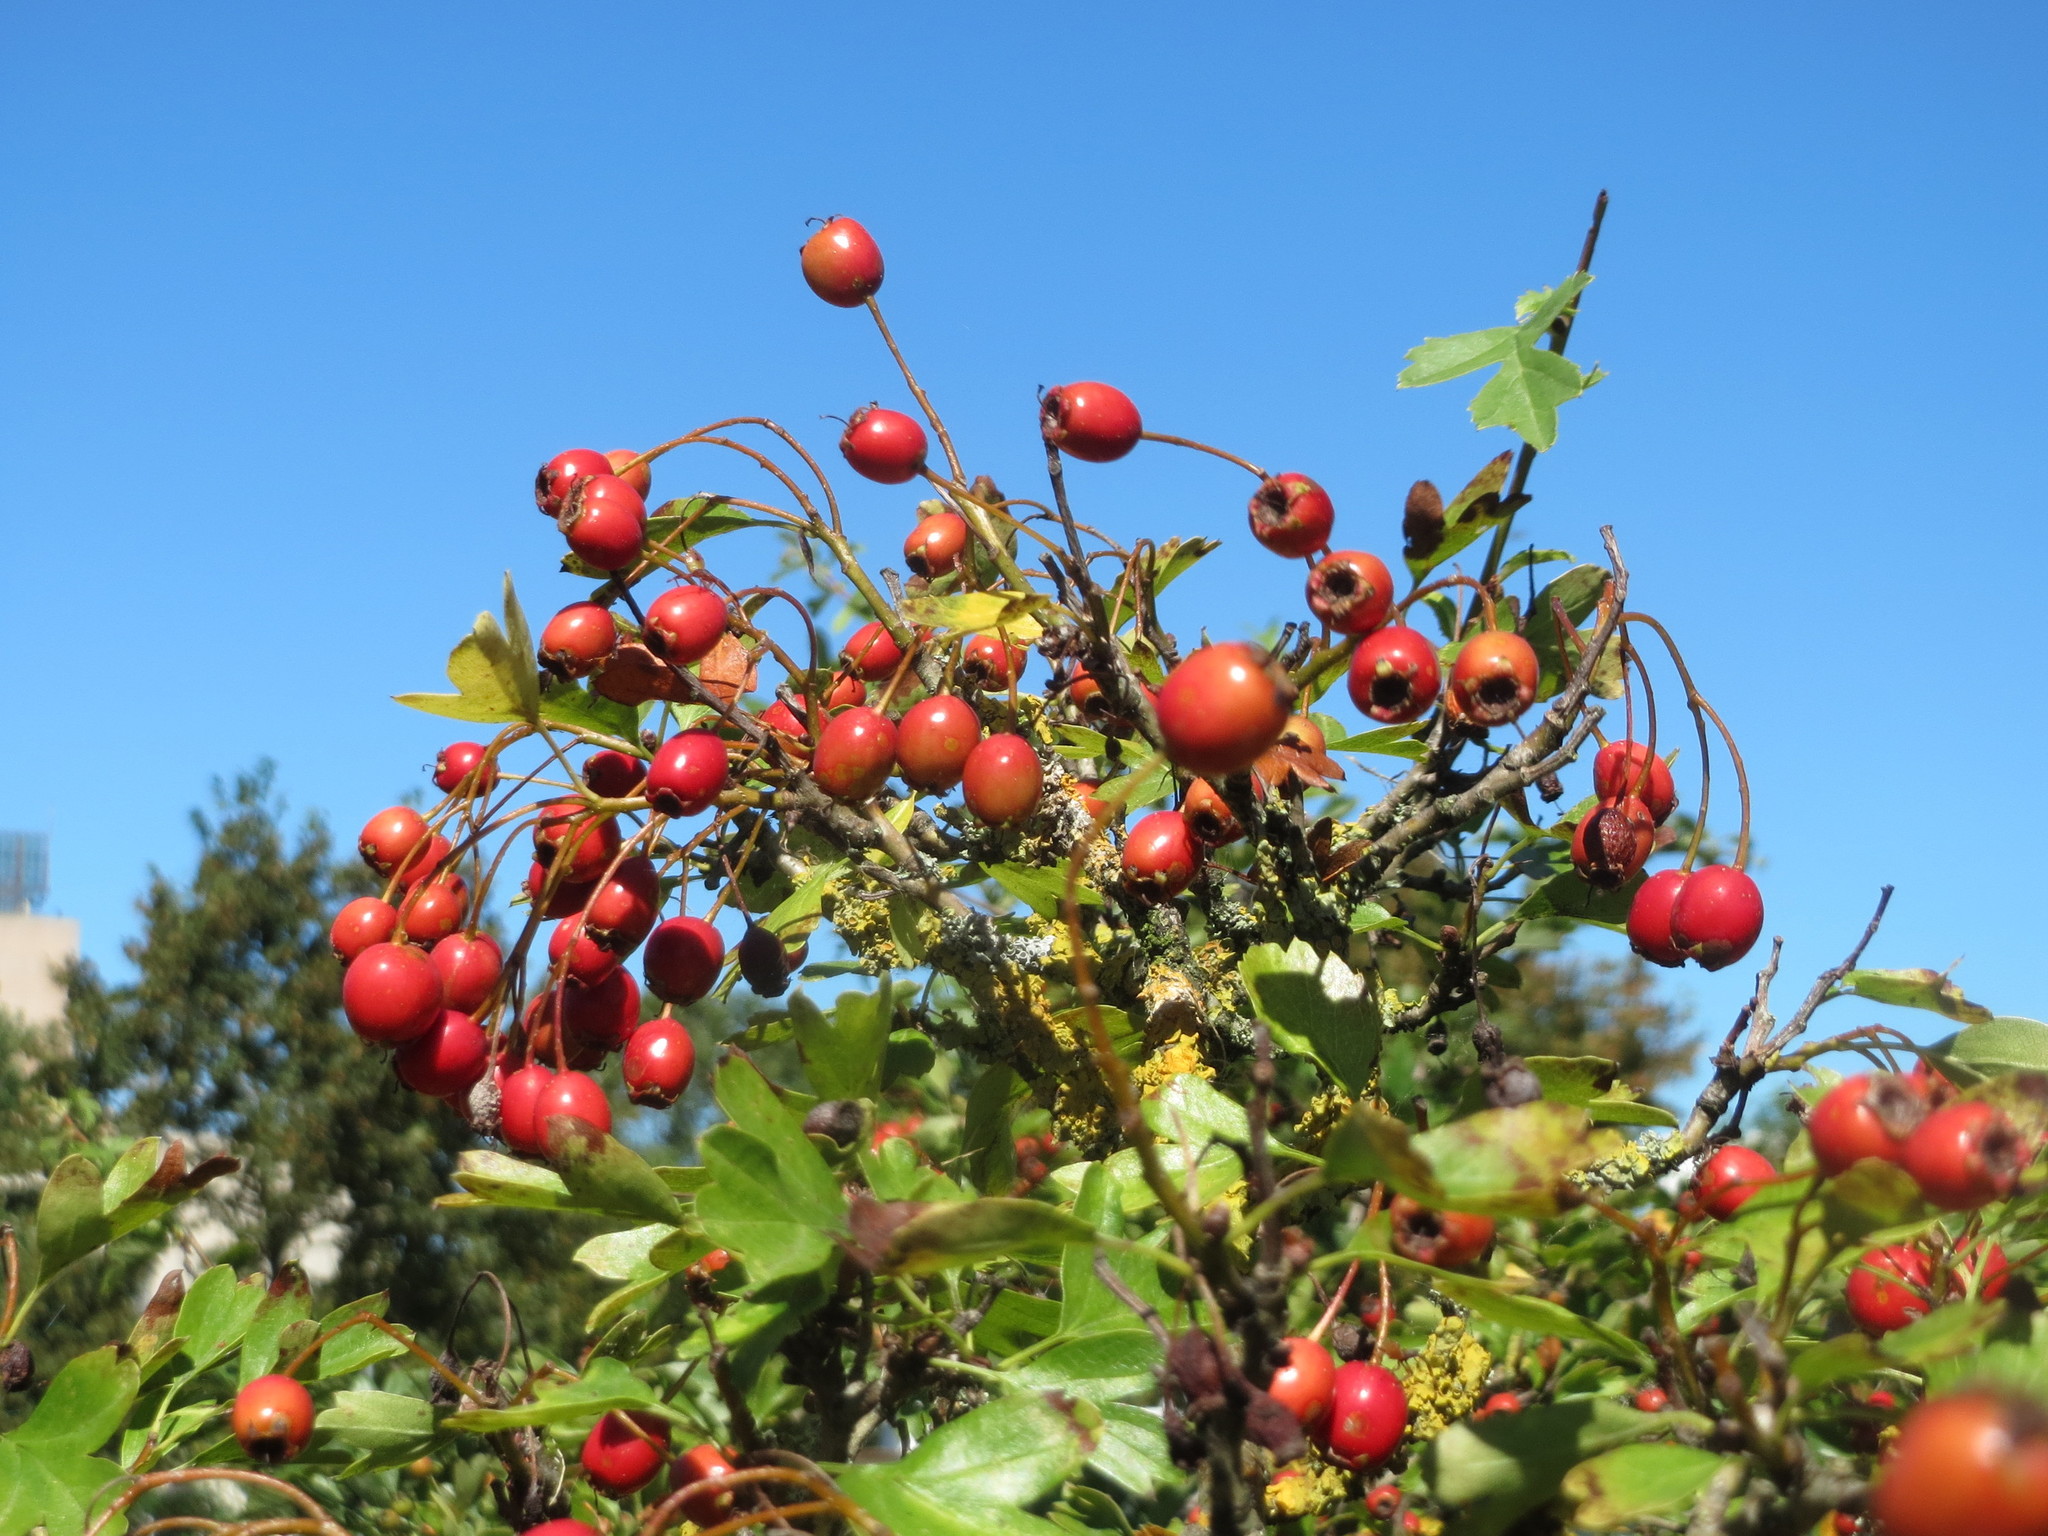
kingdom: Plantae
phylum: Tracheophyta
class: Magnoliopsida
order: Rosales
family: Rosaceae
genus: Crataegus
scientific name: Crataegus monogyna
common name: Hawthorn
